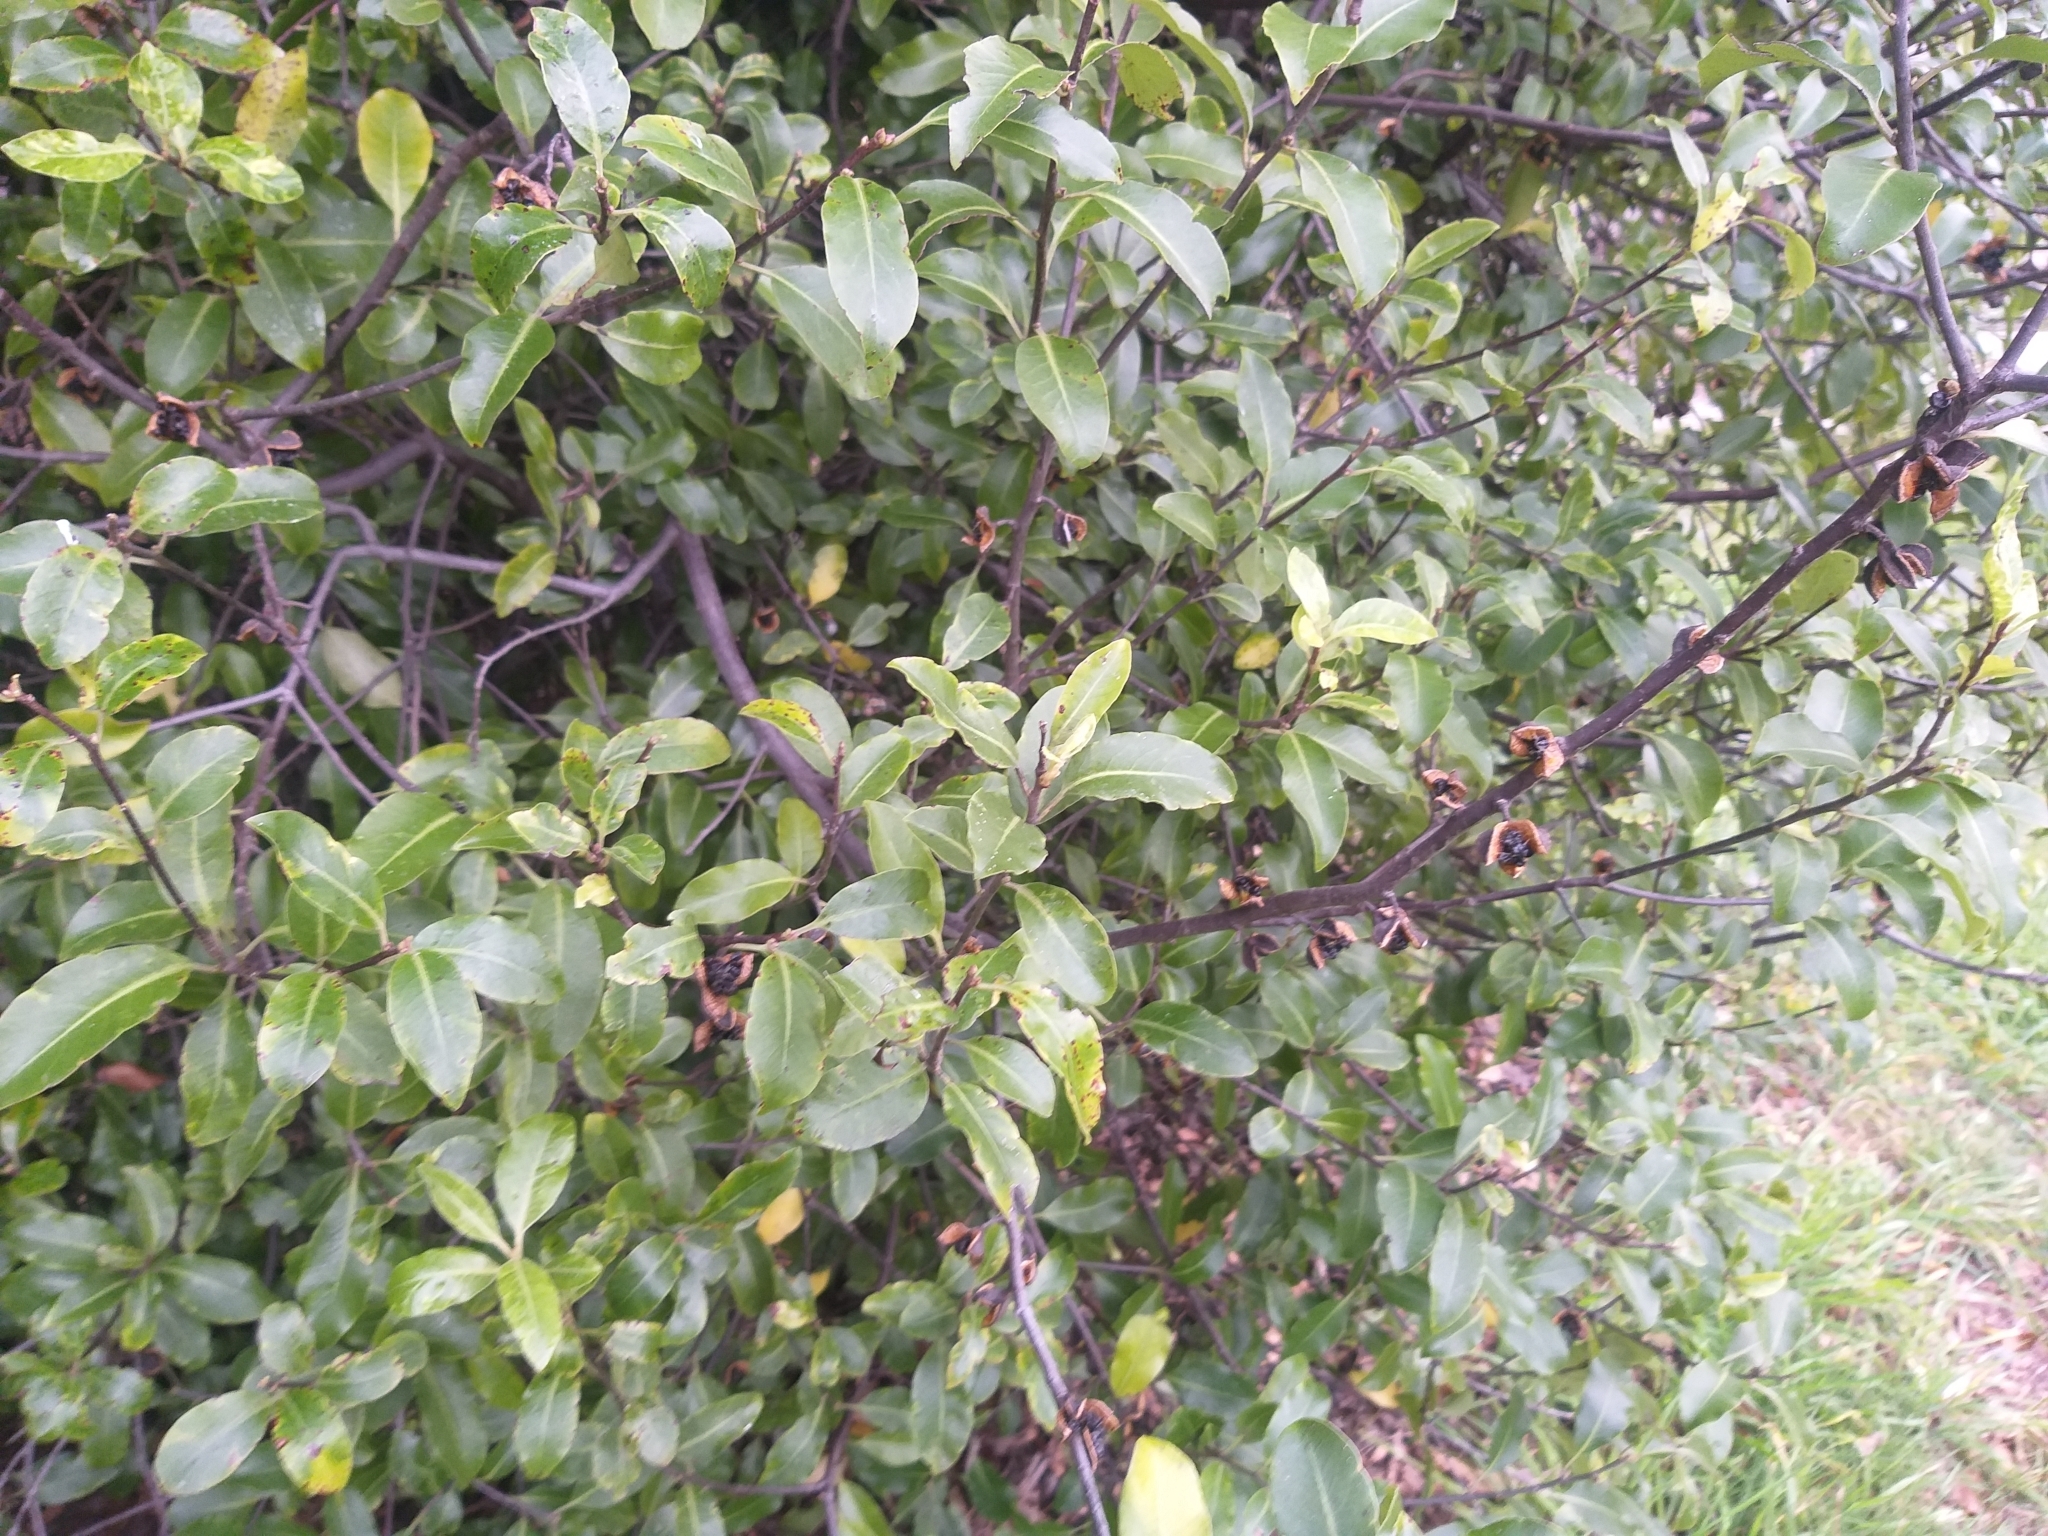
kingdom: Plantae
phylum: Tracheophyta
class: Magnoliopsida
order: Apiales
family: Pittosporaceae
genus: Pittosporum
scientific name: Pittosporum tenuifolium
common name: Kohuhu
